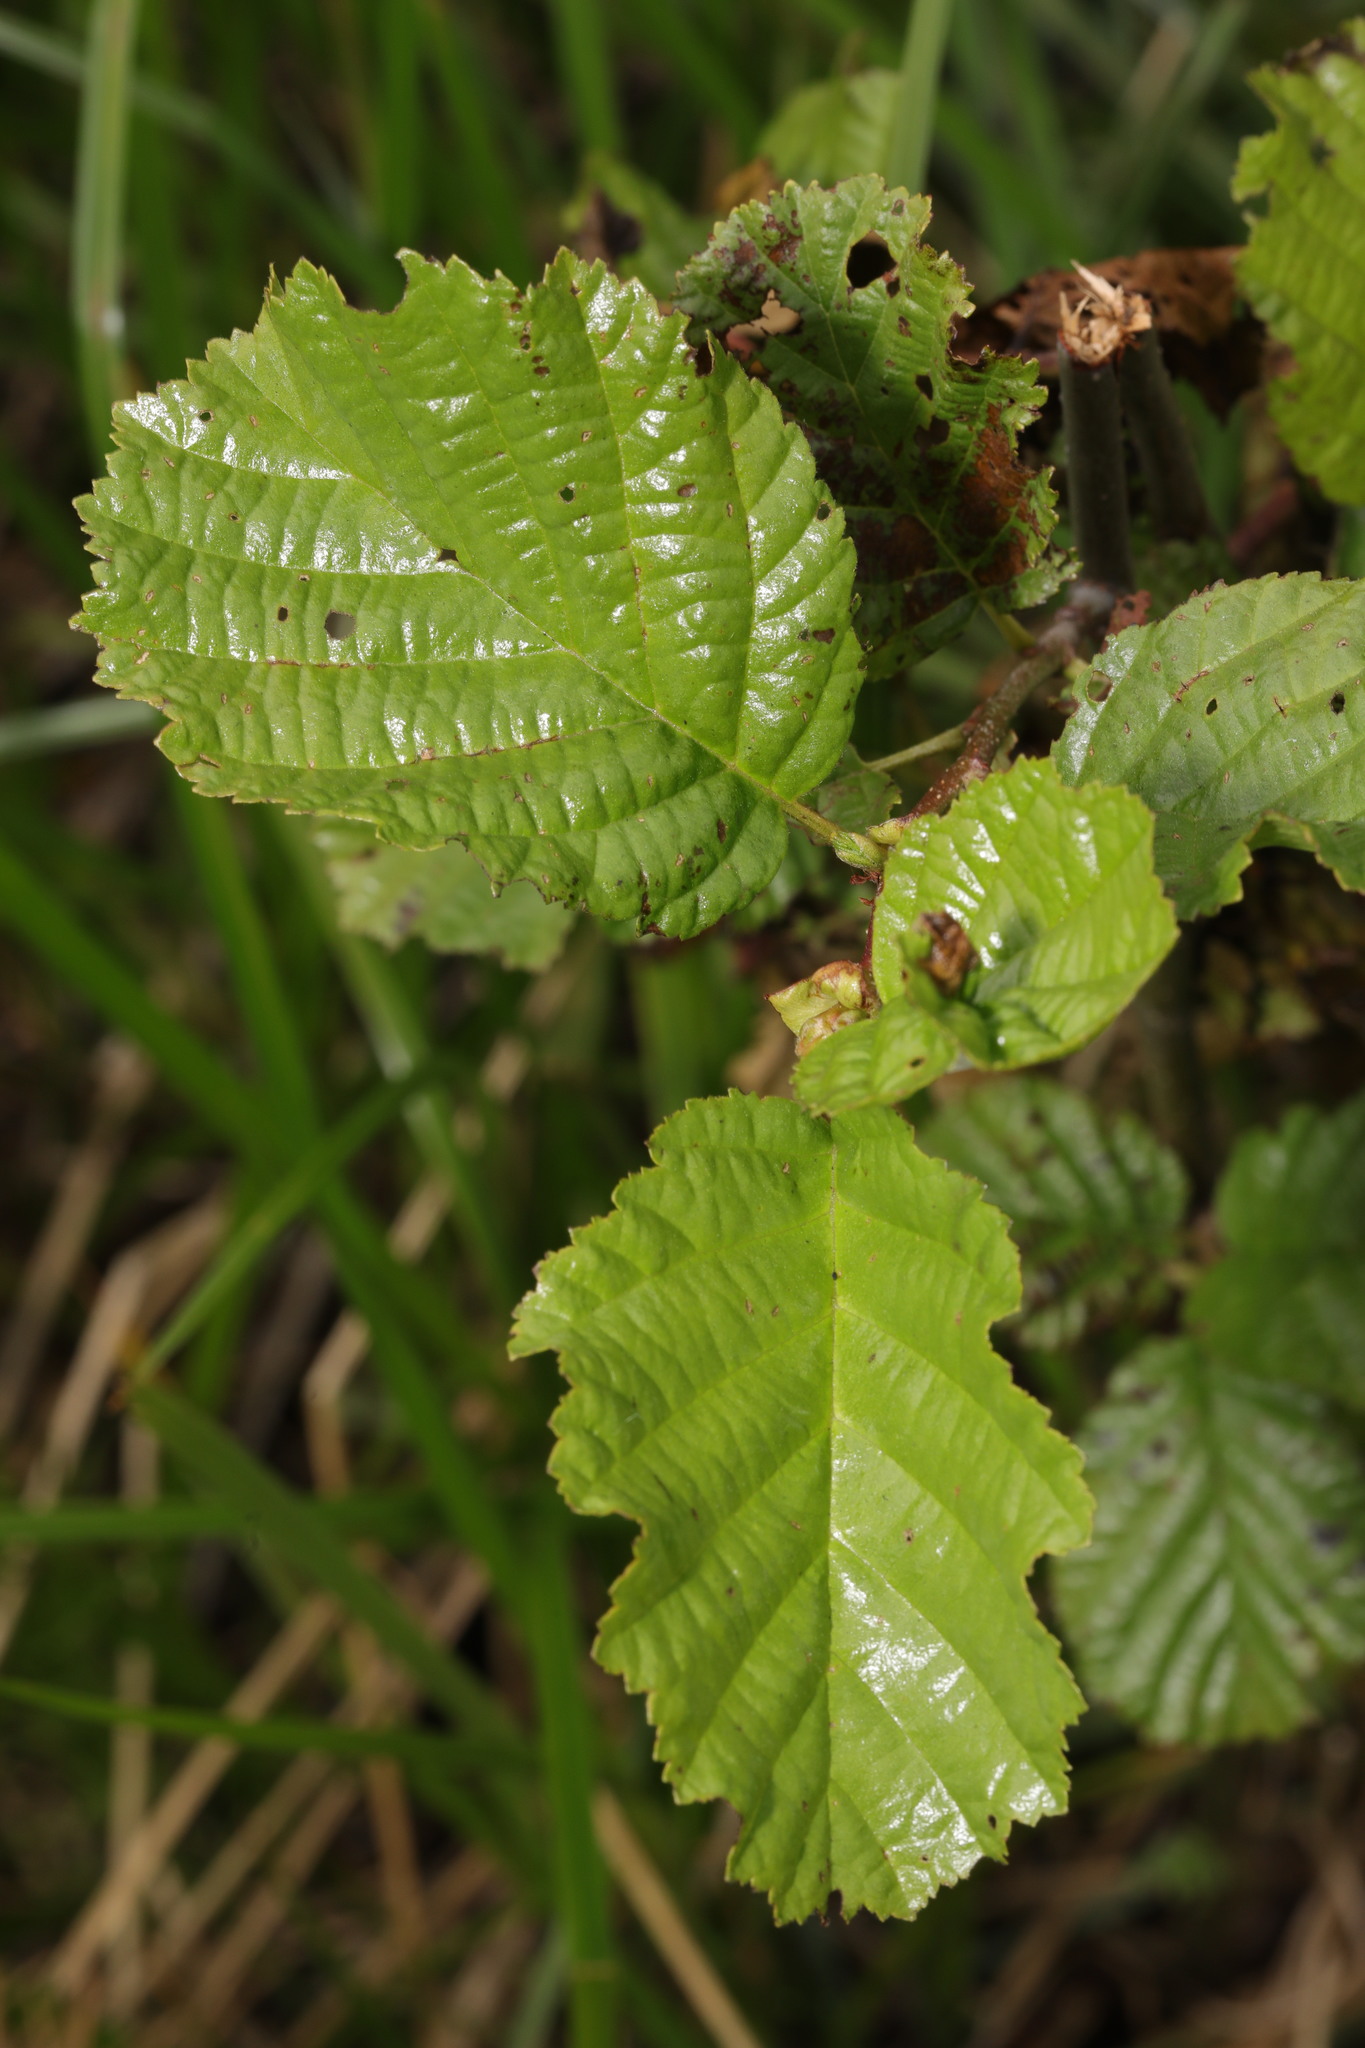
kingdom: Plantae
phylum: Tracheophyta
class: Magnoliopsida
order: Fagales
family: Betulaceae
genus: Alnus
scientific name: Alnus glutinosa
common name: Black alder
